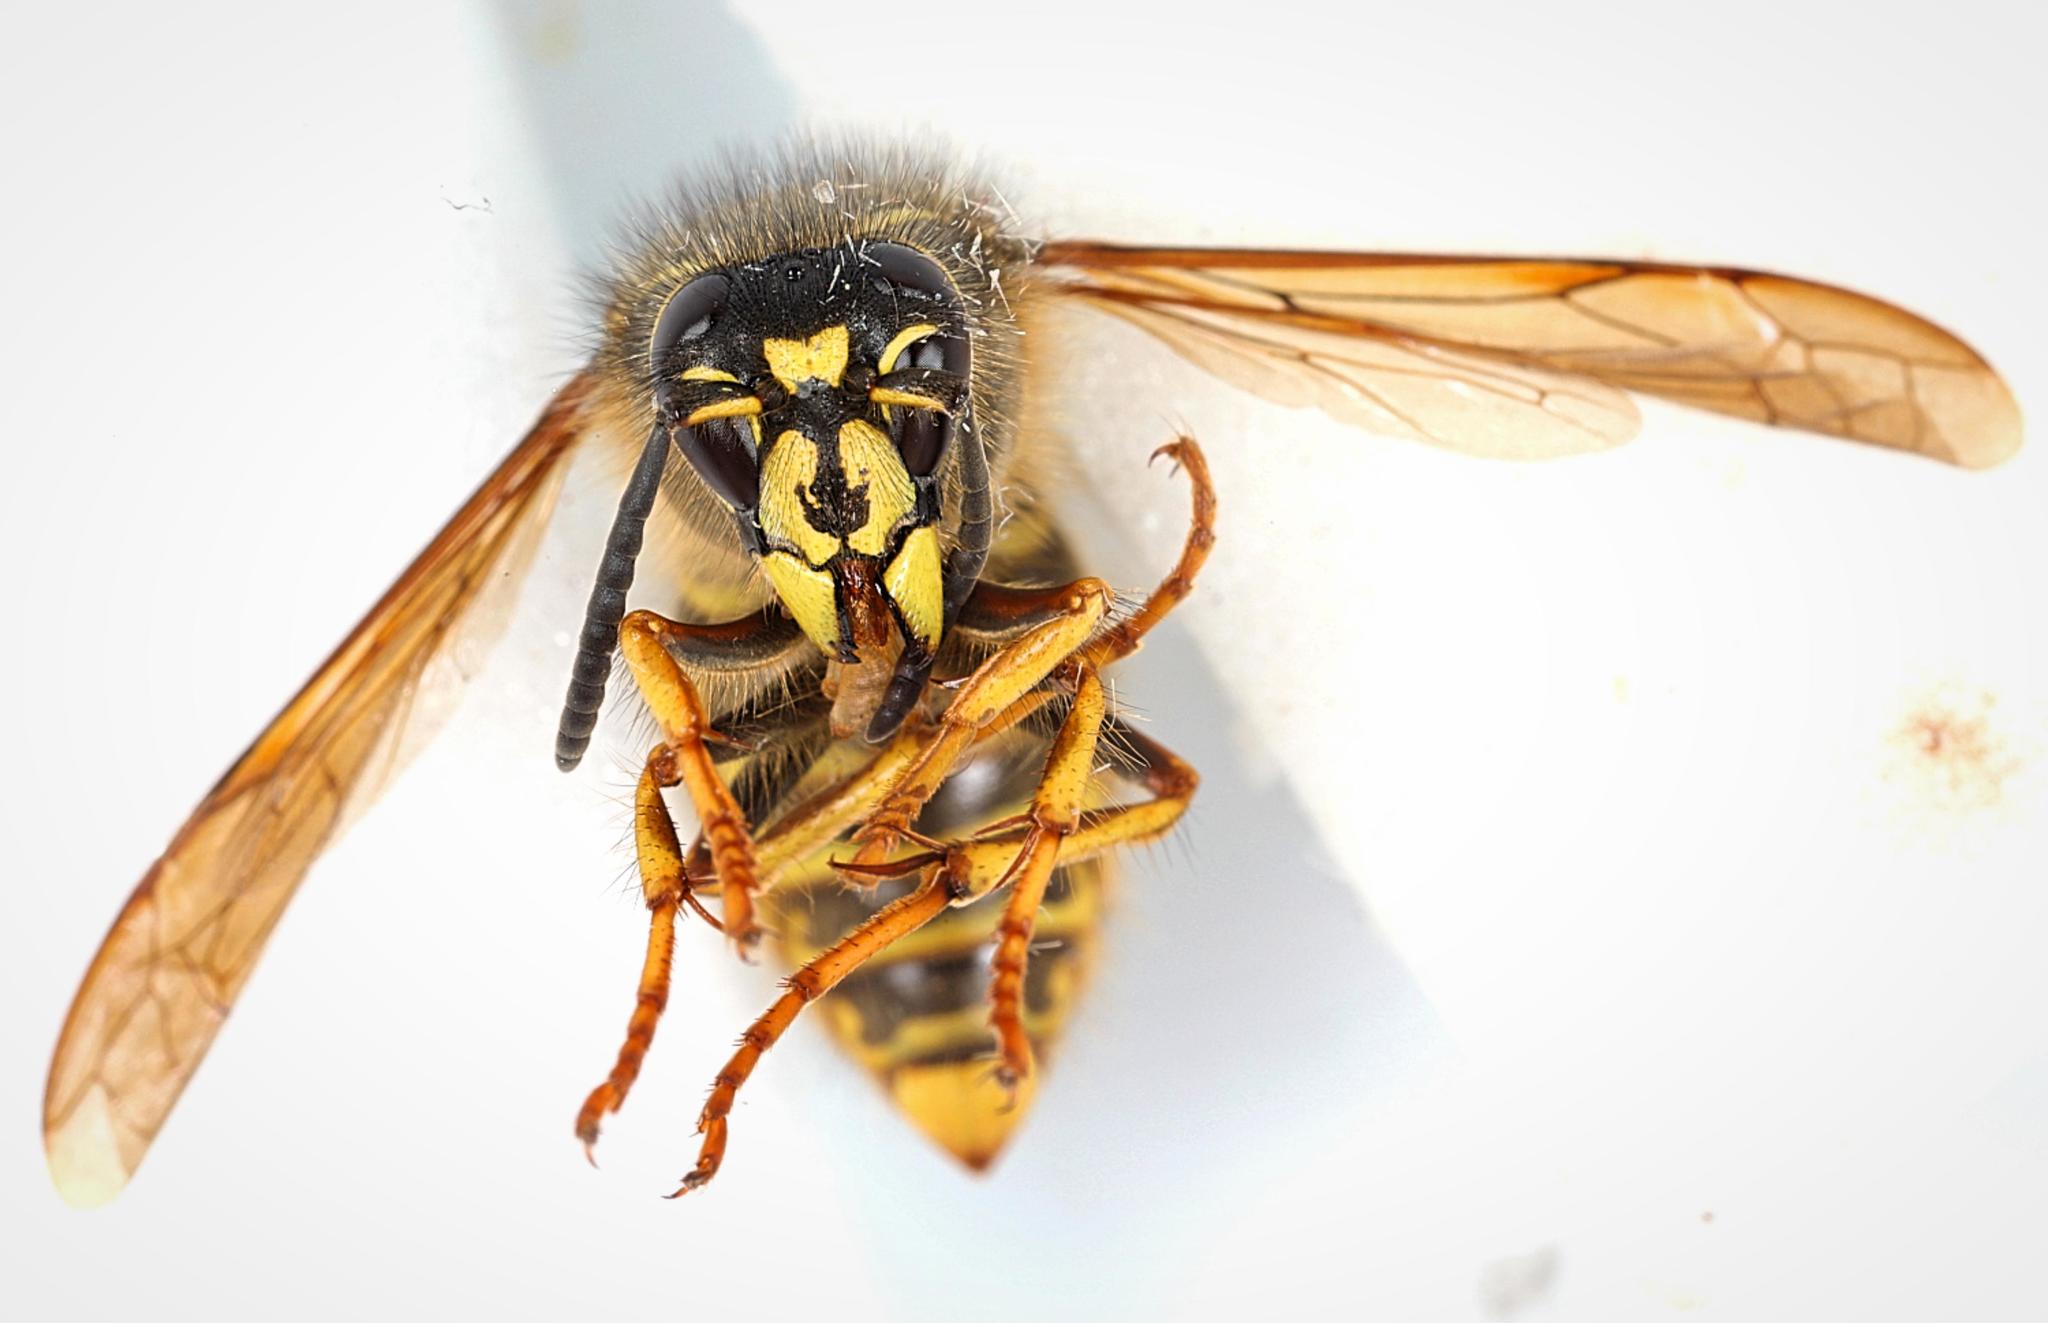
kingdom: Animalia
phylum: Arthropoda
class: Insecta
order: Hymenoptera
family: Vespidae
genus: Dolichovespula
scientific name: Dolichovespula saxonica
